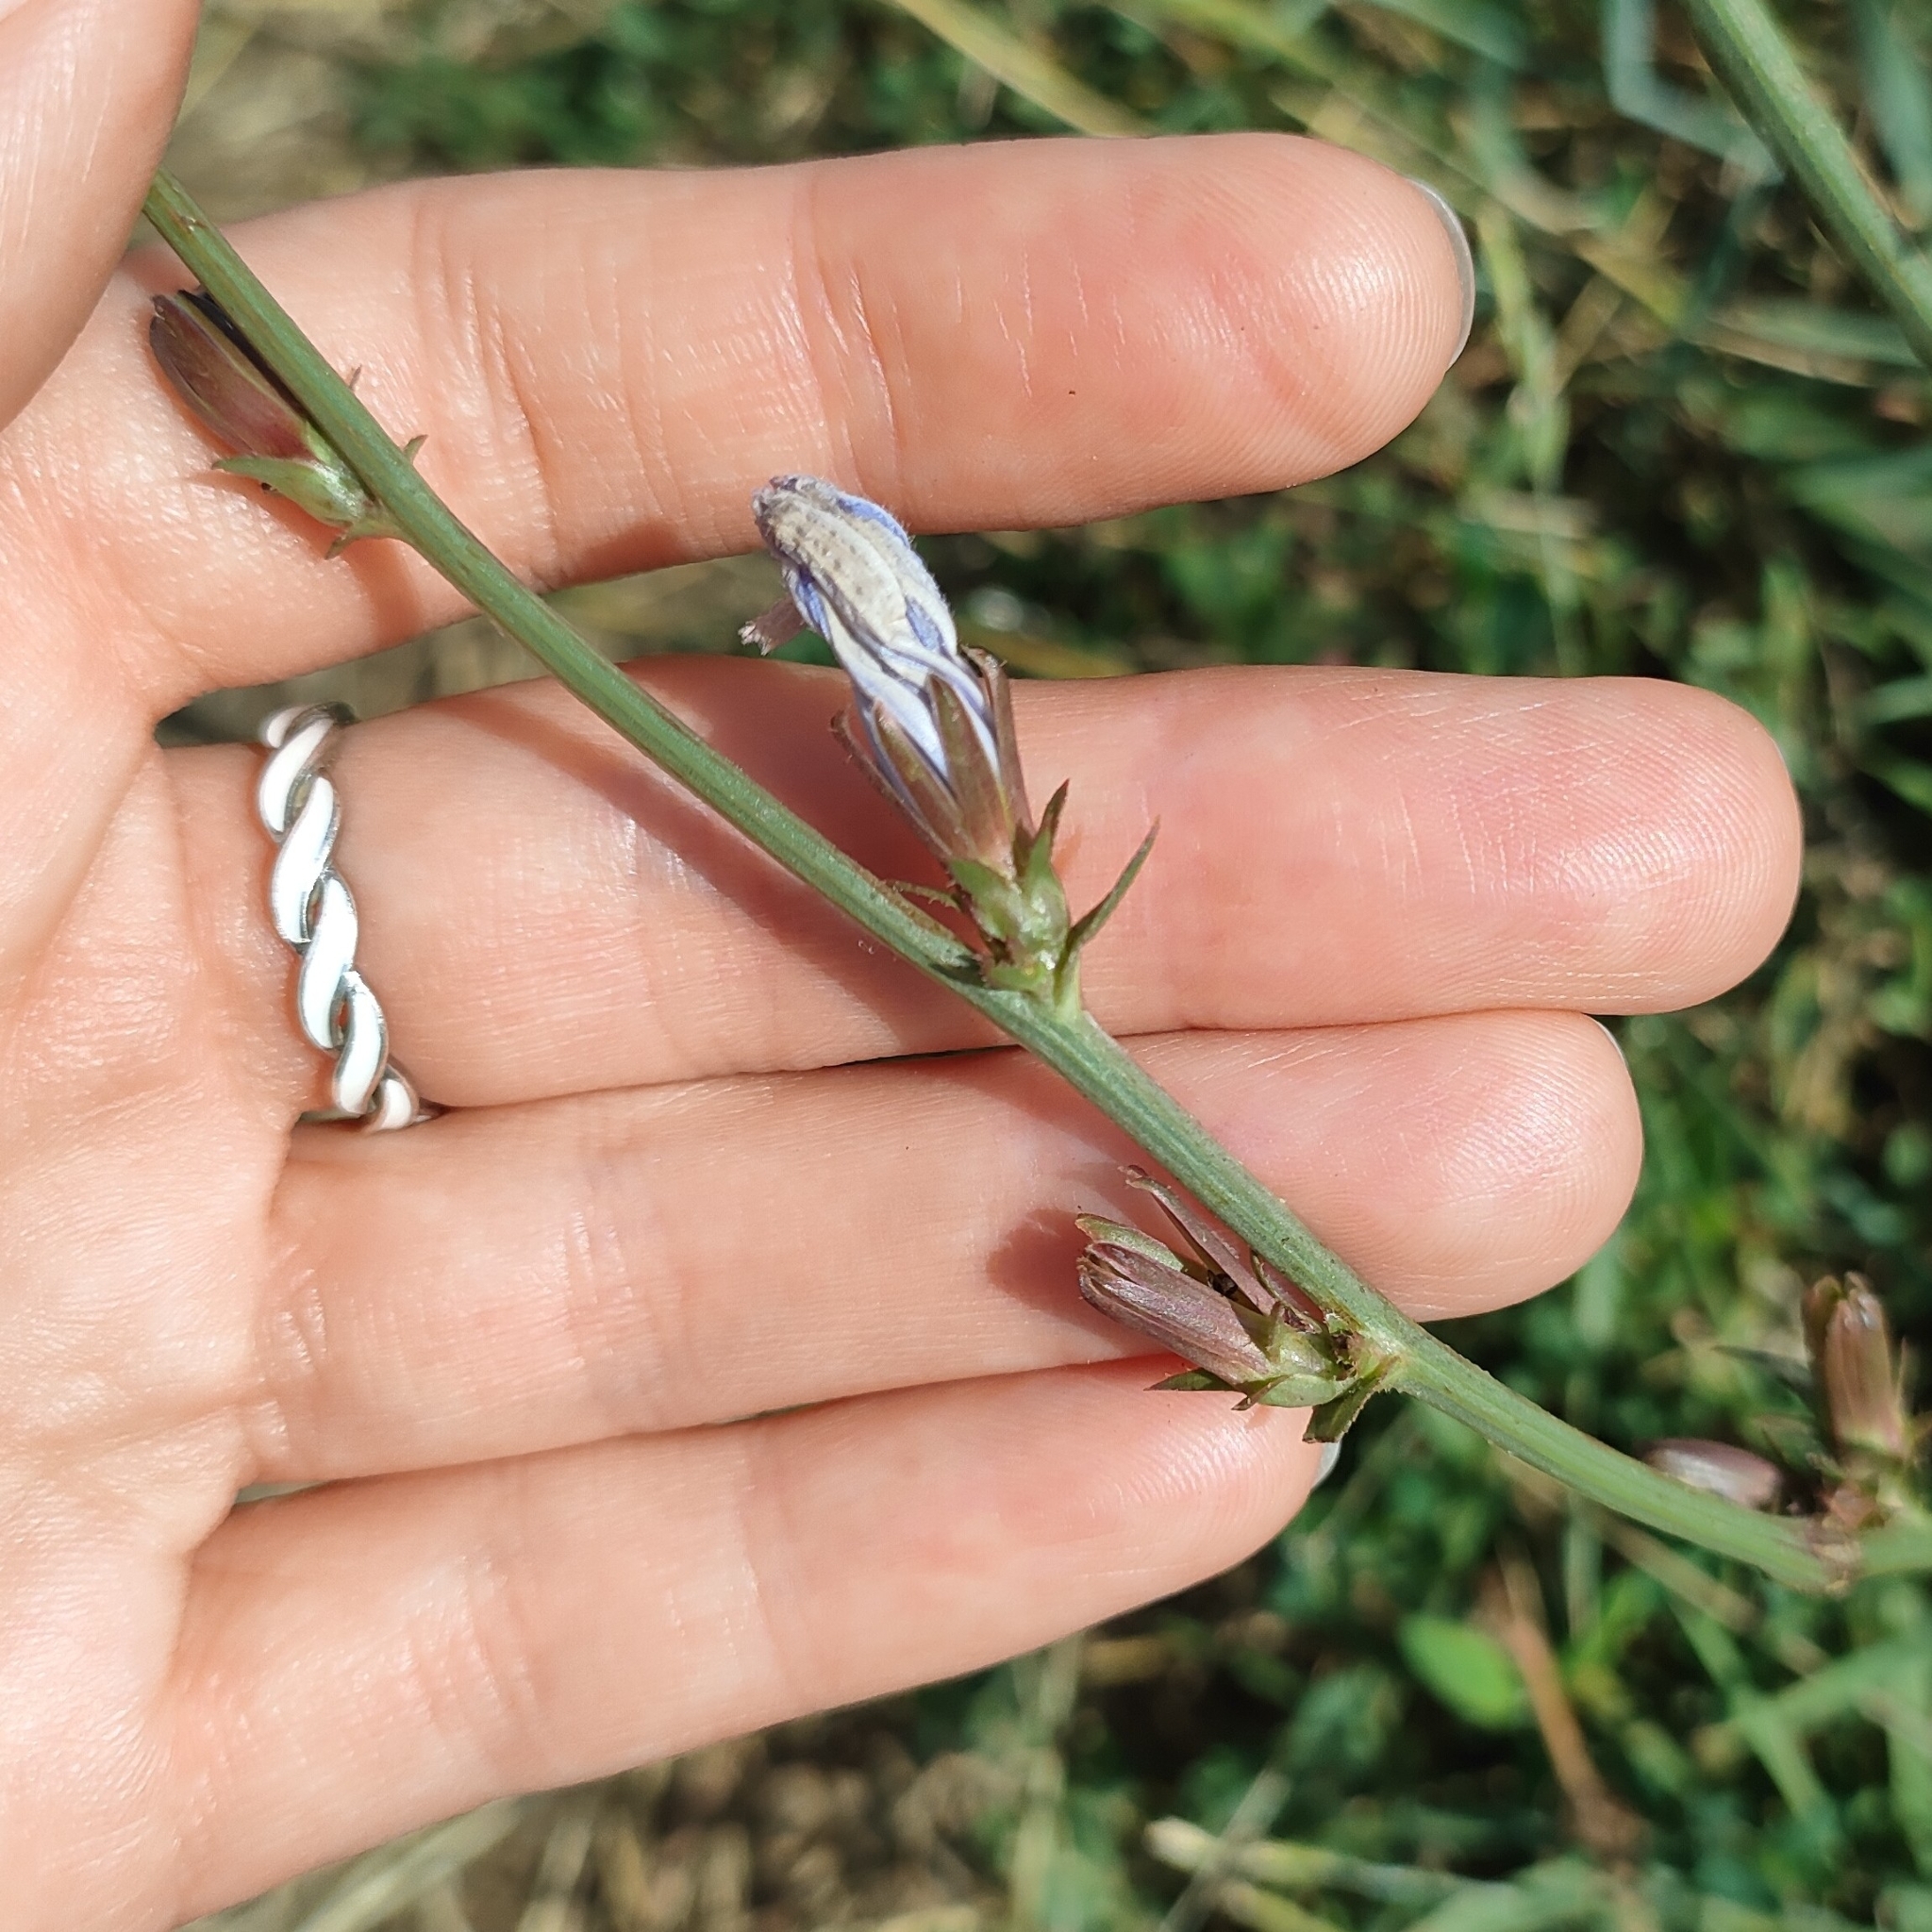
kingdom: Plantae
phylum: Tracheophyta
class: Magnoliopsida
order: Asterales
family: Asteraceae
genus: Cichorium
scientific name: Cichorium intybus
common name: Chicory
